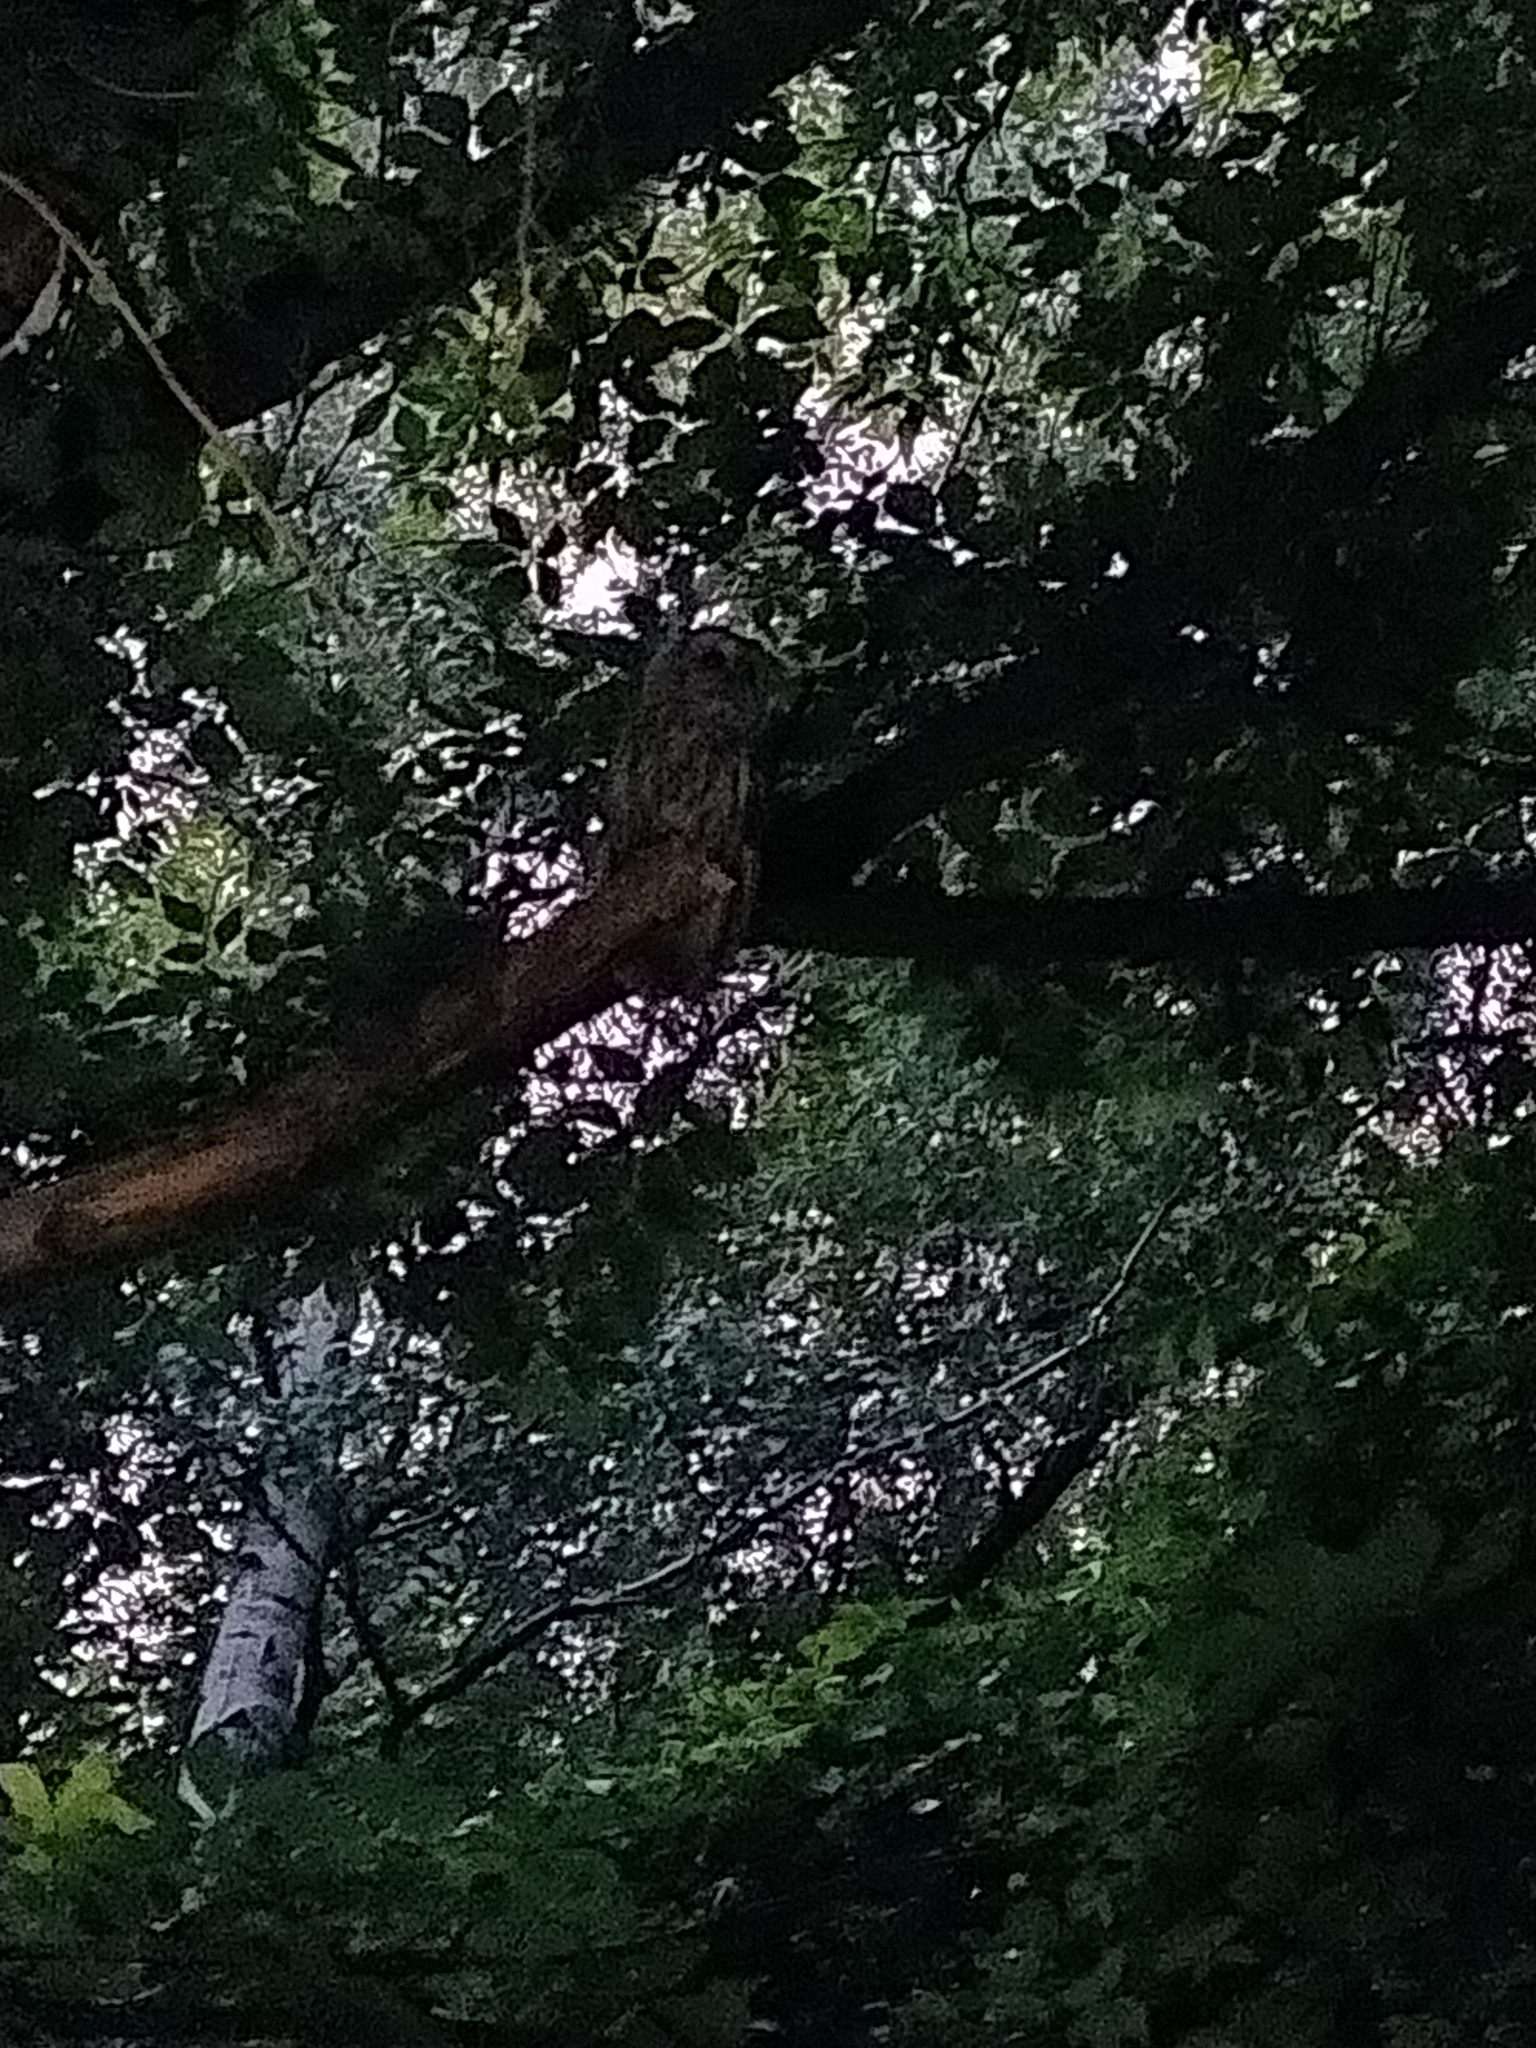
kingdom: Animalia
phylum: Chordata
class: Aves
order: Strigiformes
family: Strigidae
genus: Strix
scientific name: Strix aluco
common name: Tawny owl
